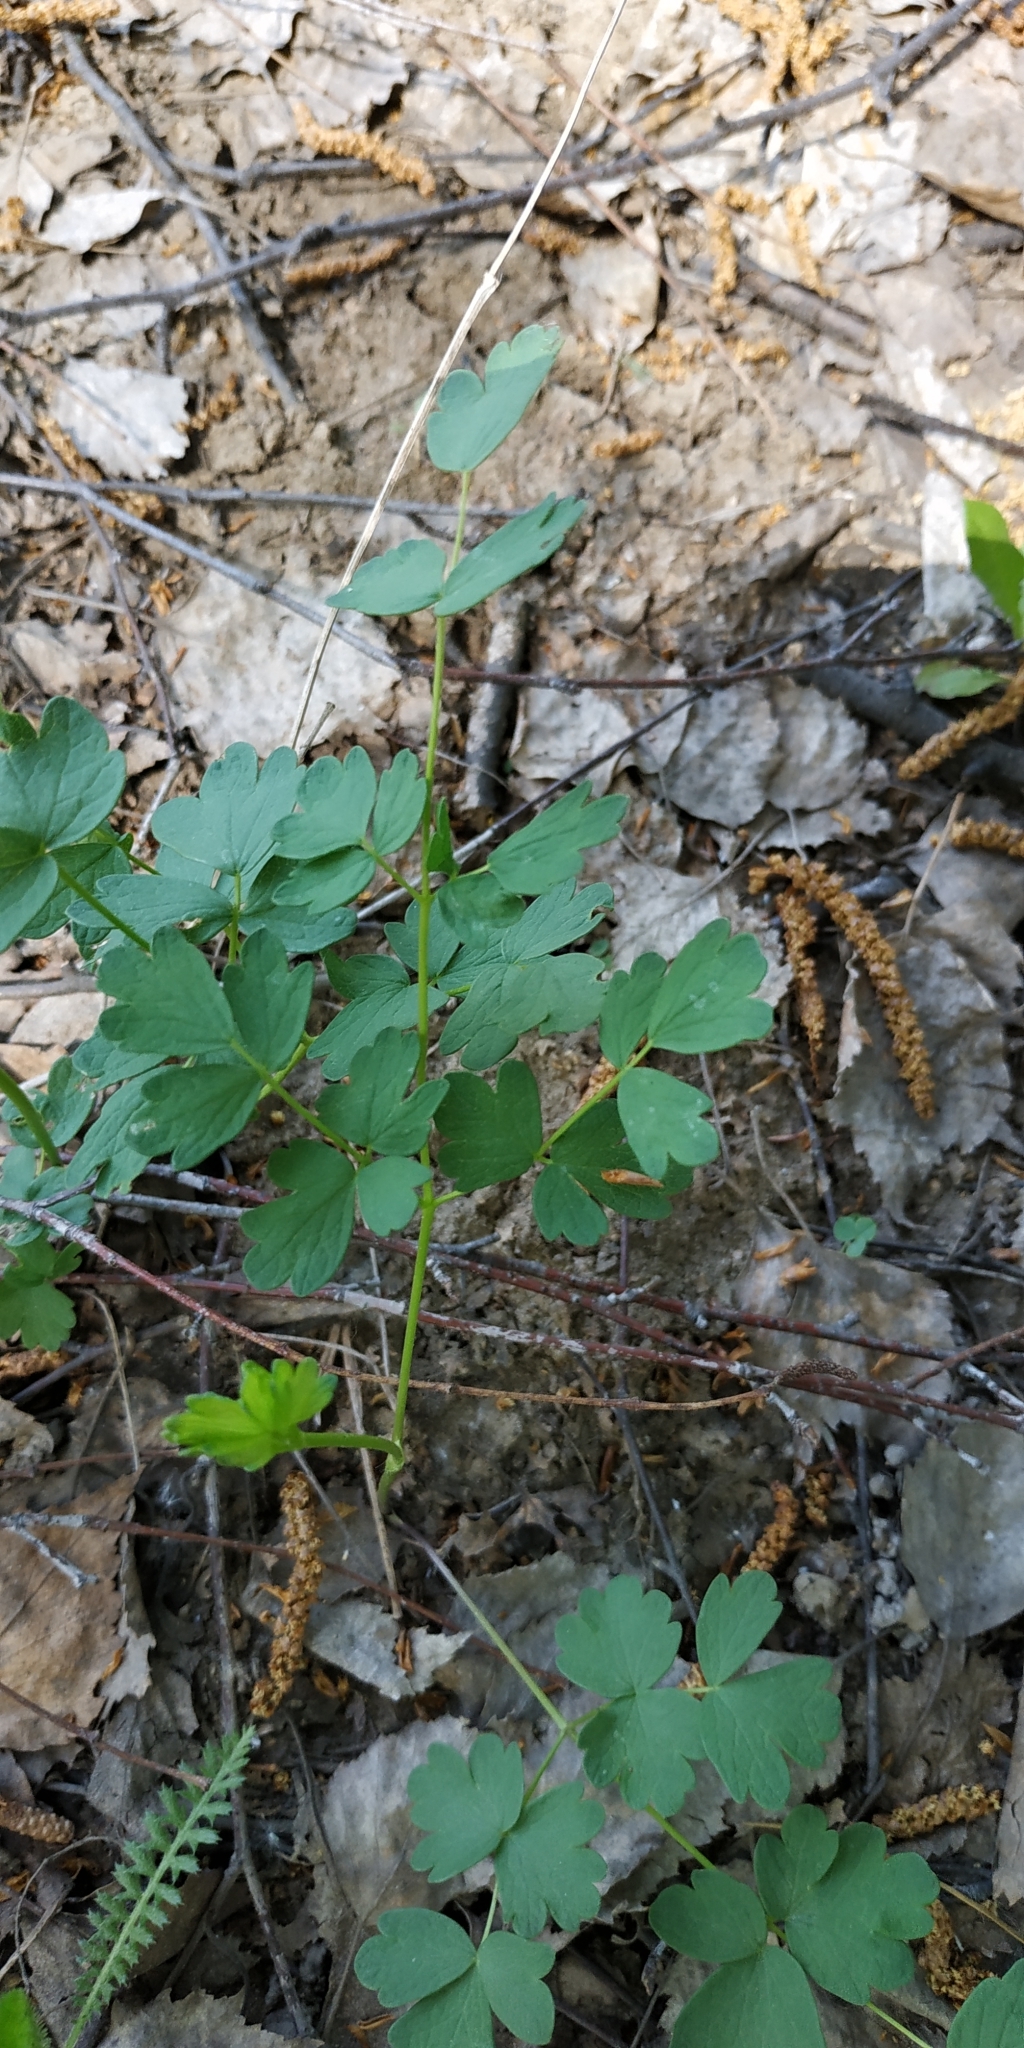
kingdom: Plantae
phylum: Tracheophyta
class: Magnoliopsida
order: Ranunculales
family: Ranunculaceae
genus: Thalictrum
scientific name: Thalictrum minus
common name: Lesser meadow-rue
